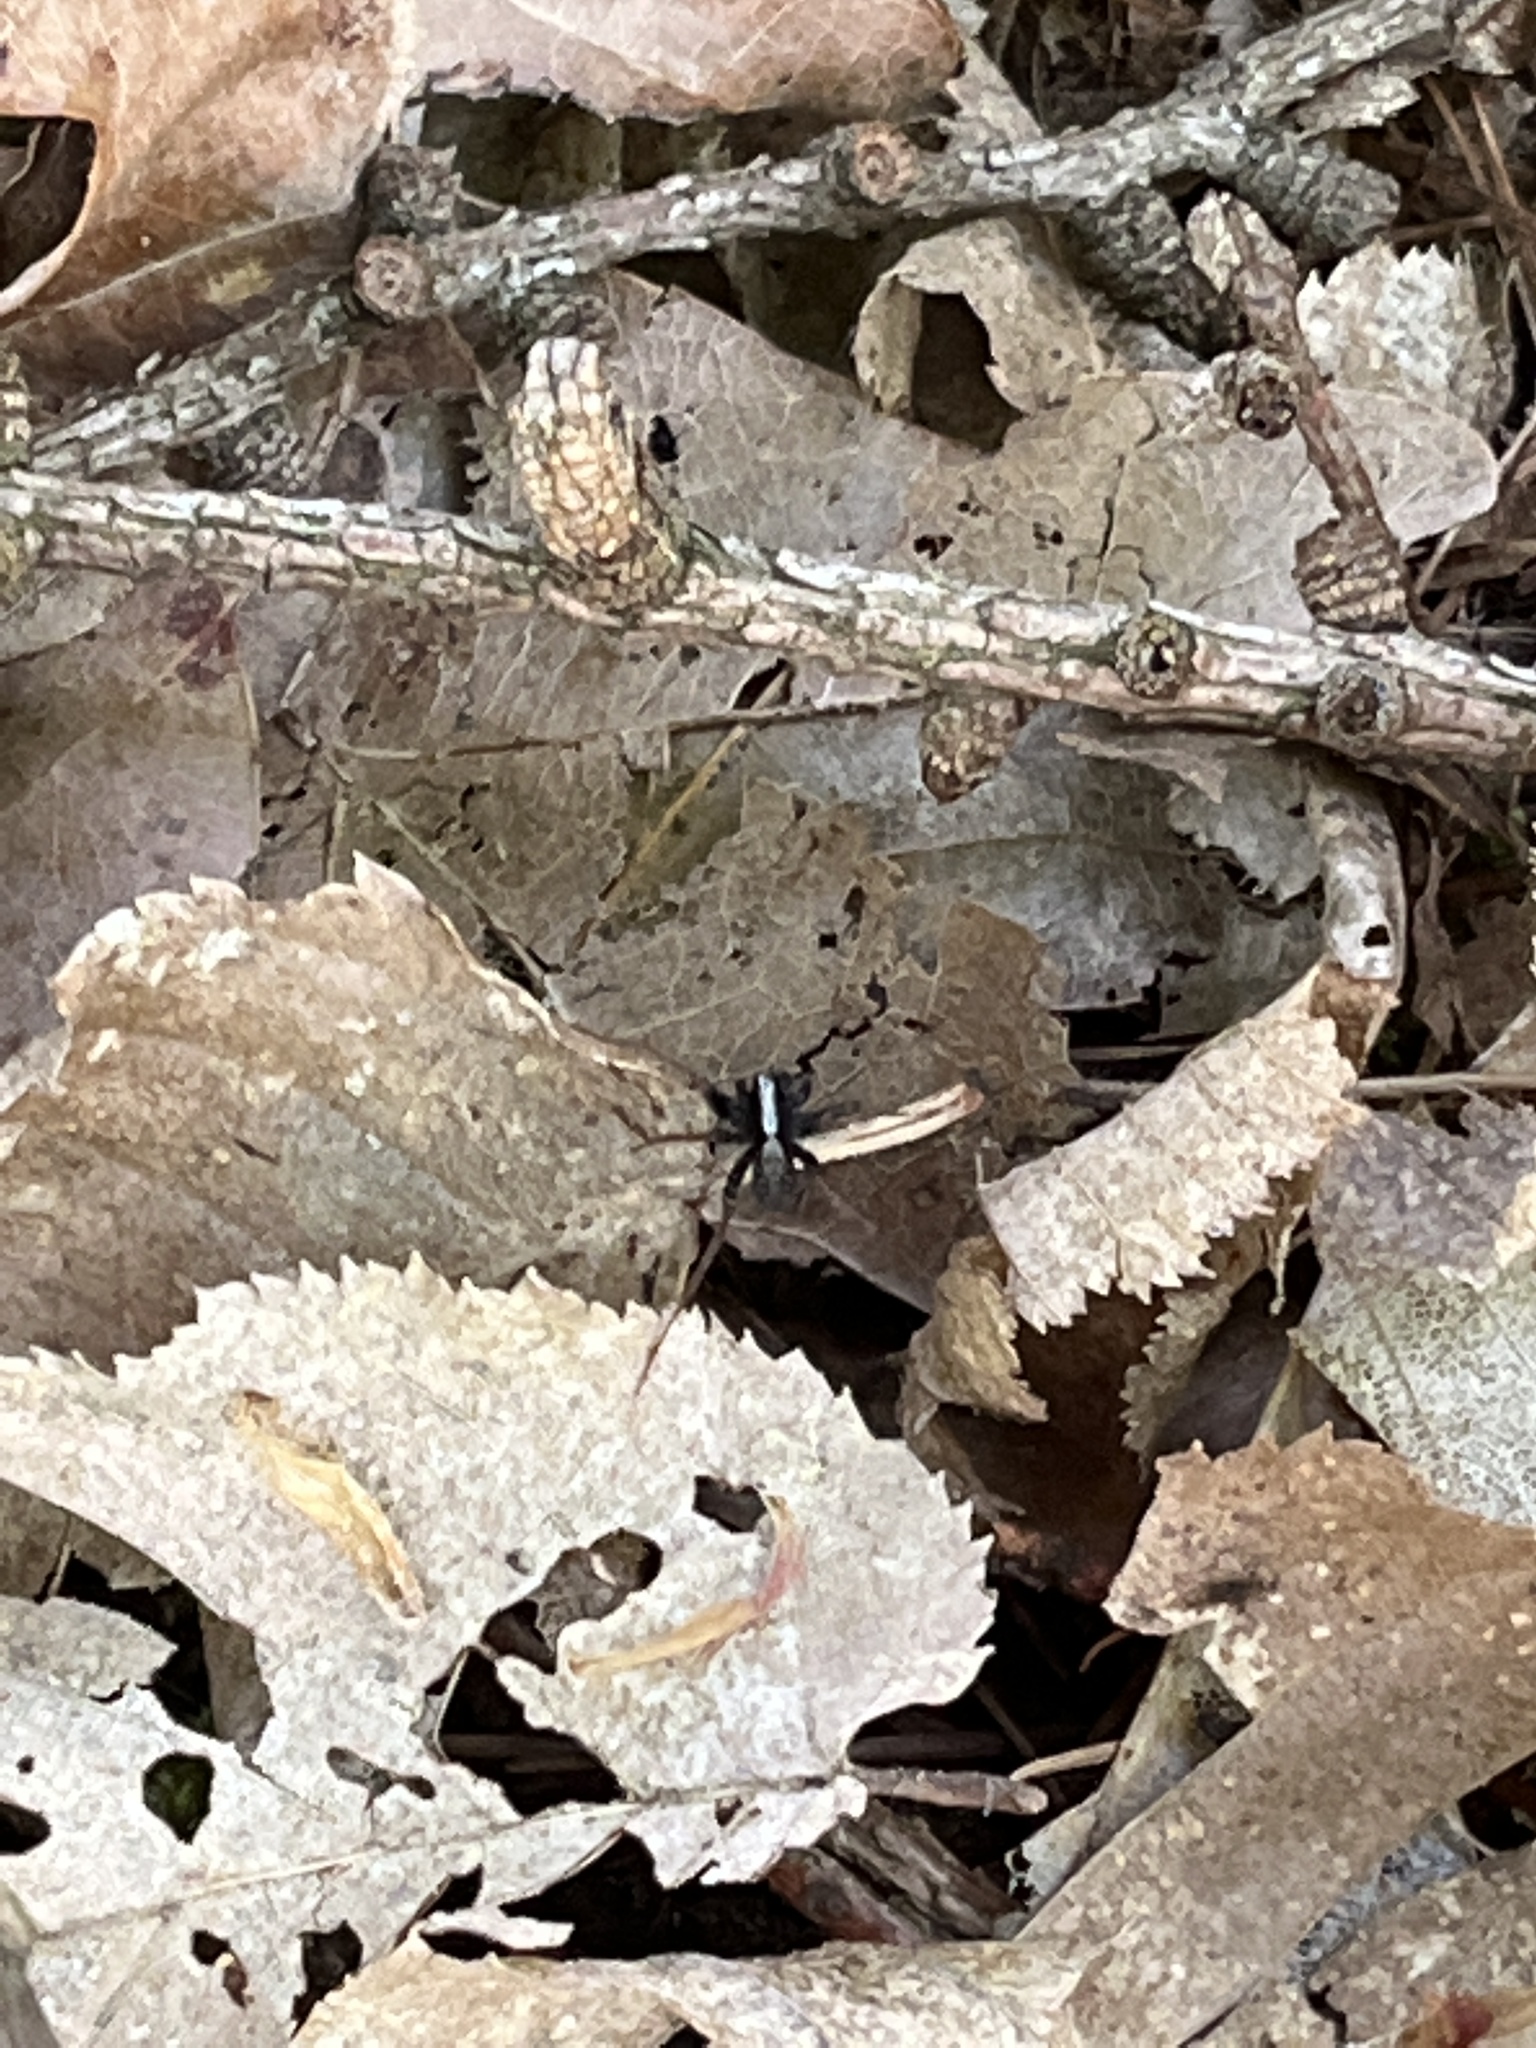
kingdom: Animalia
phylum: Arthropoda
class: Arachnida
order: Araneae
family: Lycosidae
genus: Pardosa
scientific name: Pardosa
